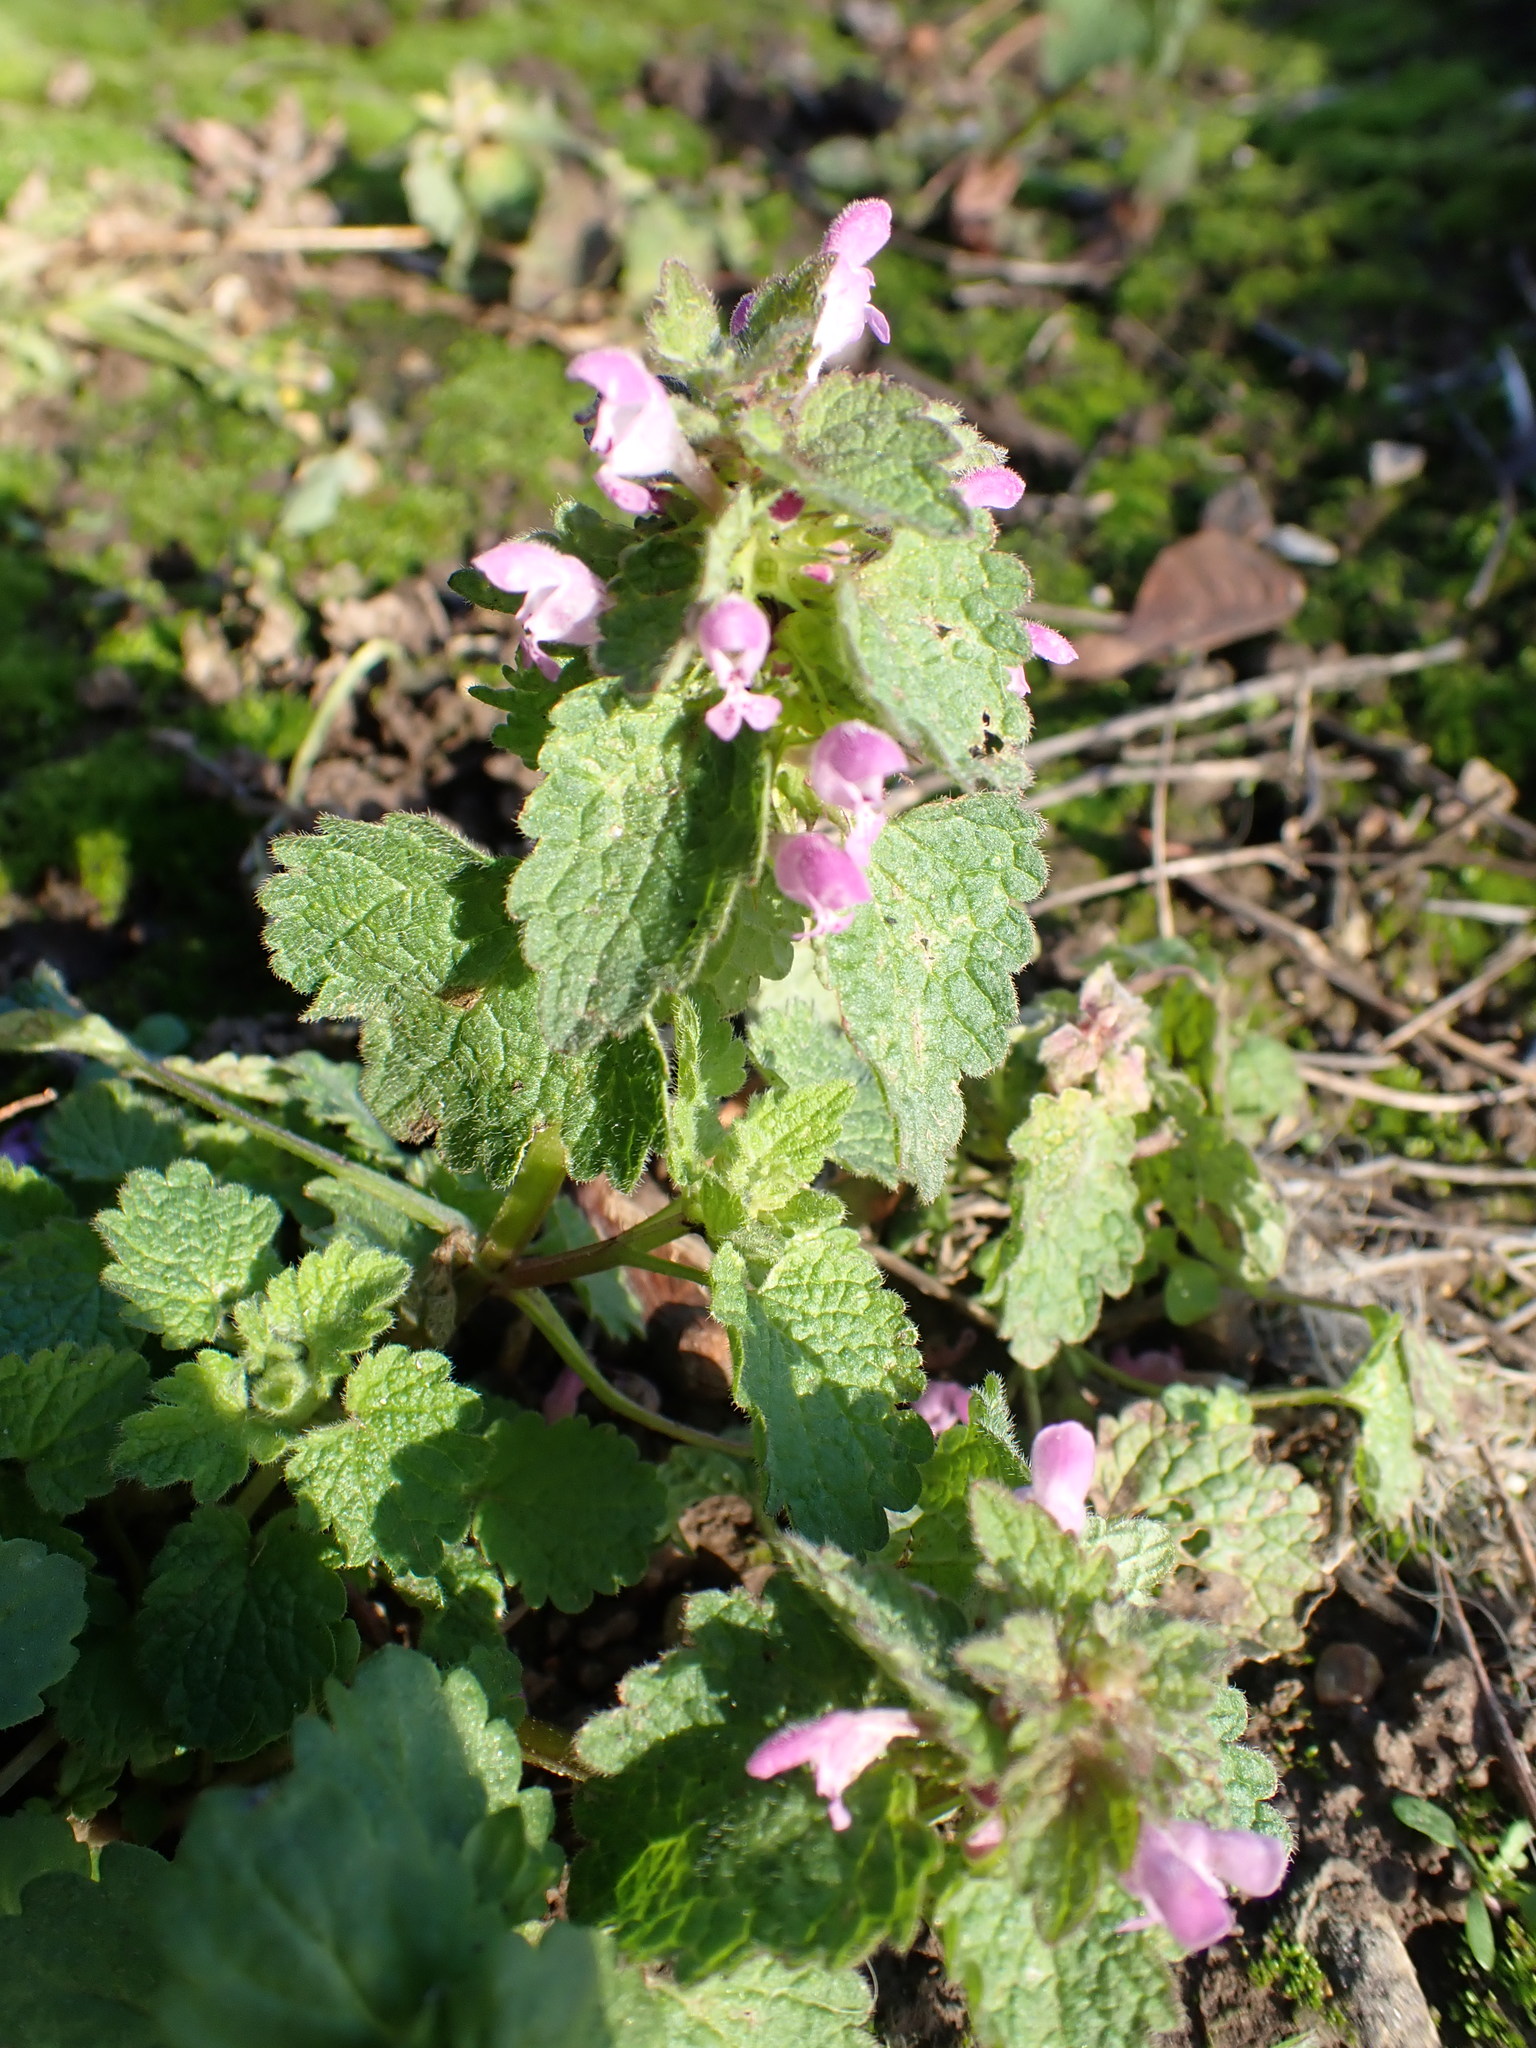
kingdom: Plantae
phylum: Tracheophyta
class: Magnoliopsida
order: Lamiales
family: Lamiaceae
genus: Lamium
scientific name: Lamium purpureum
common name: Red dead-nettle
